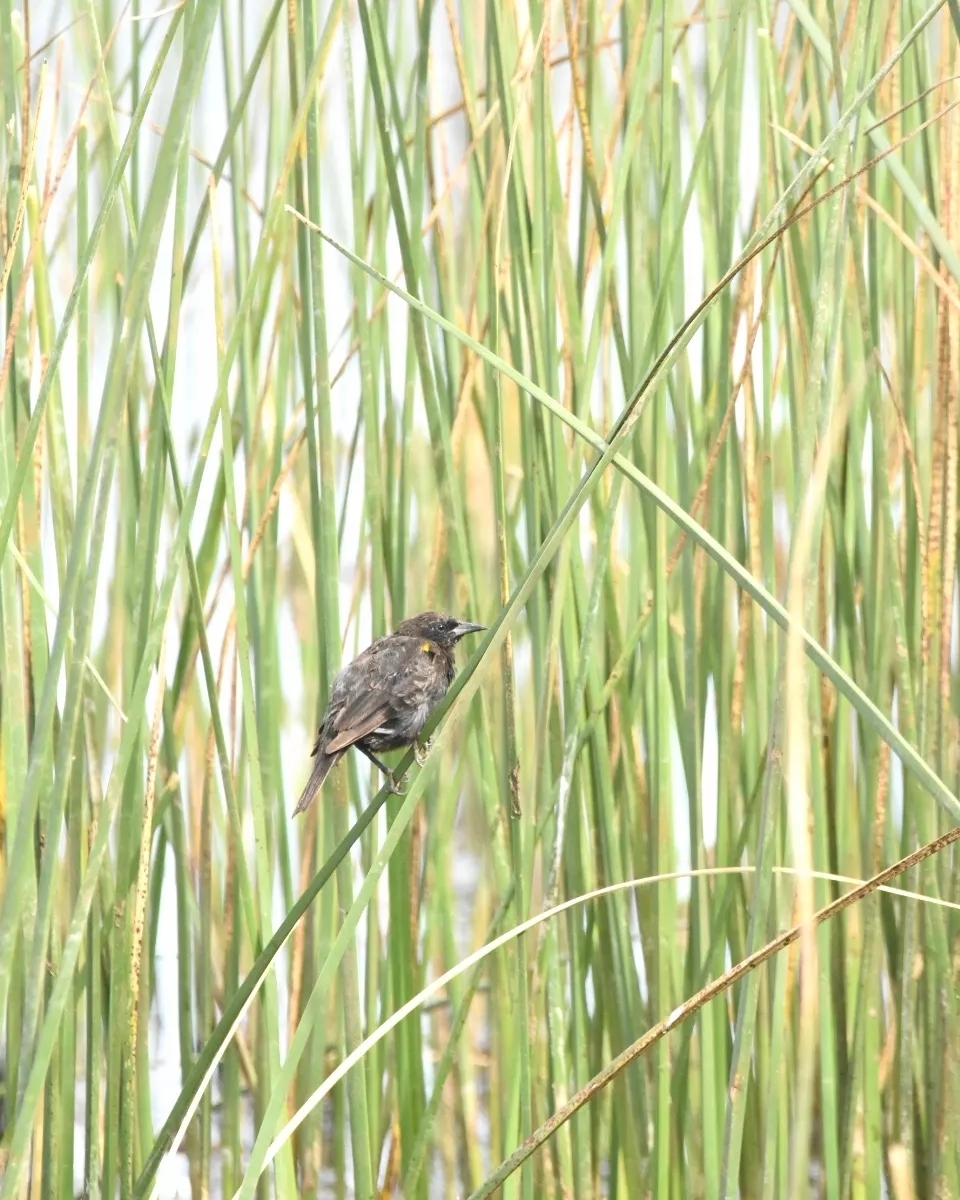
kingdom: Animalia
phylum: Chordata
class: Aves
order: Passeriformes
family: Icteridae
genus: Agelasticus
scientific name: Agelasticus thilius
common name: Yellow-winged blackbird
